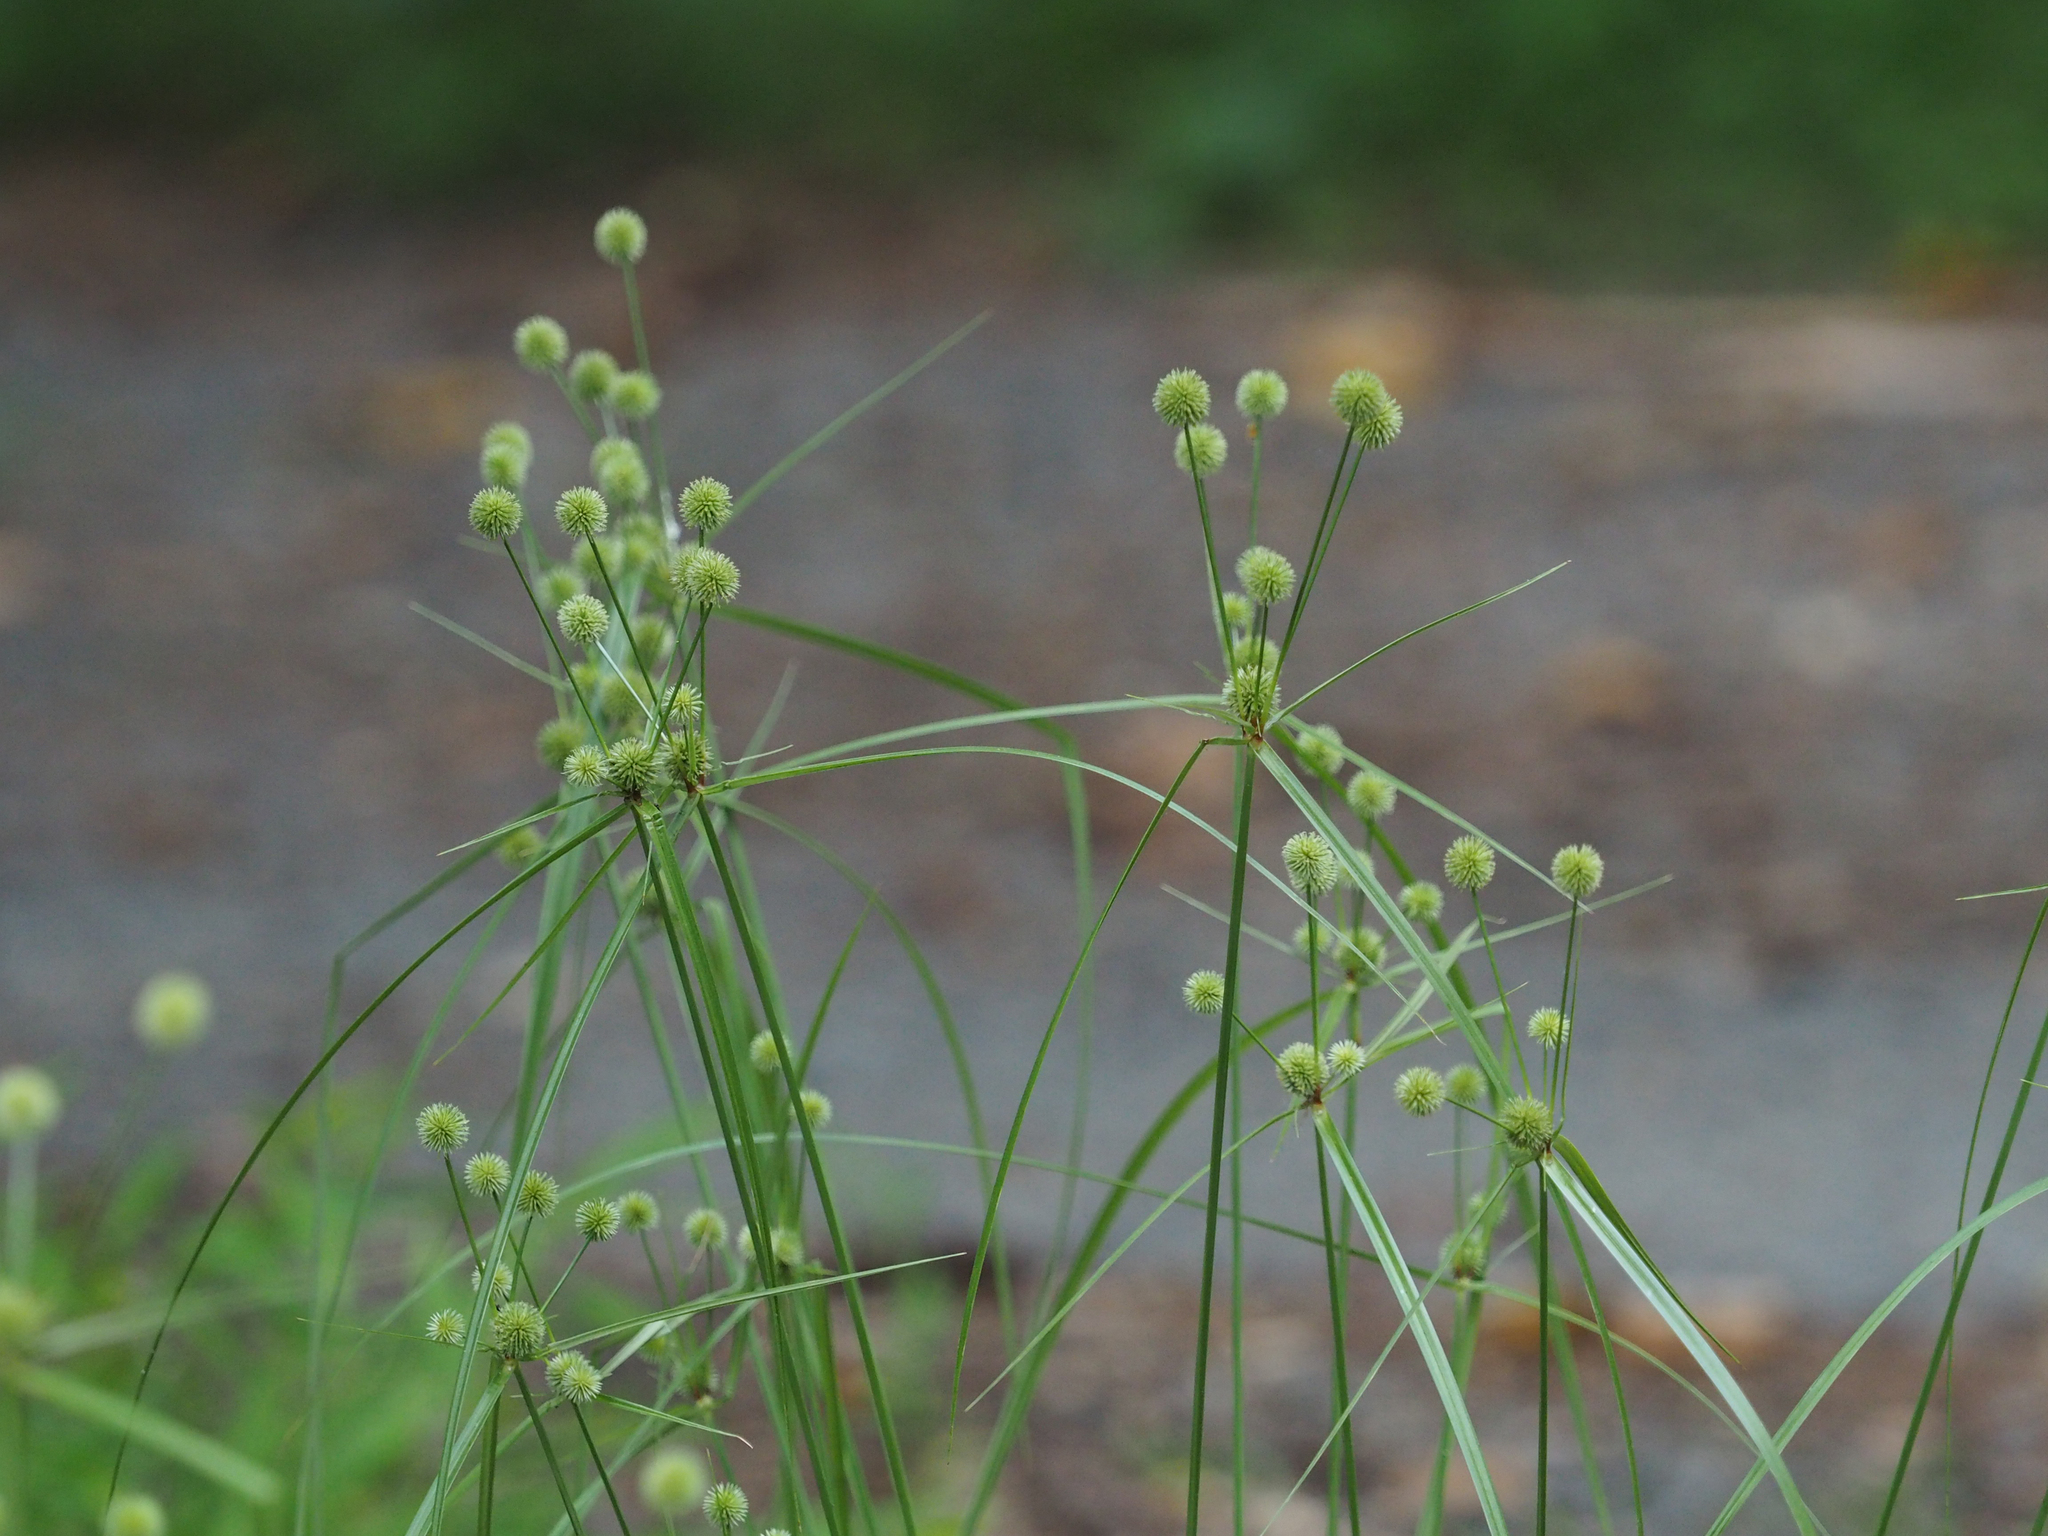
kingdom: Plantae
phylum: Tracheophyta
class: Liliopsida
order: Poales
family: Cyperaceae
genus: Cyperus
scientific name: Cyperus echinatus
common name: Teasel sedge
